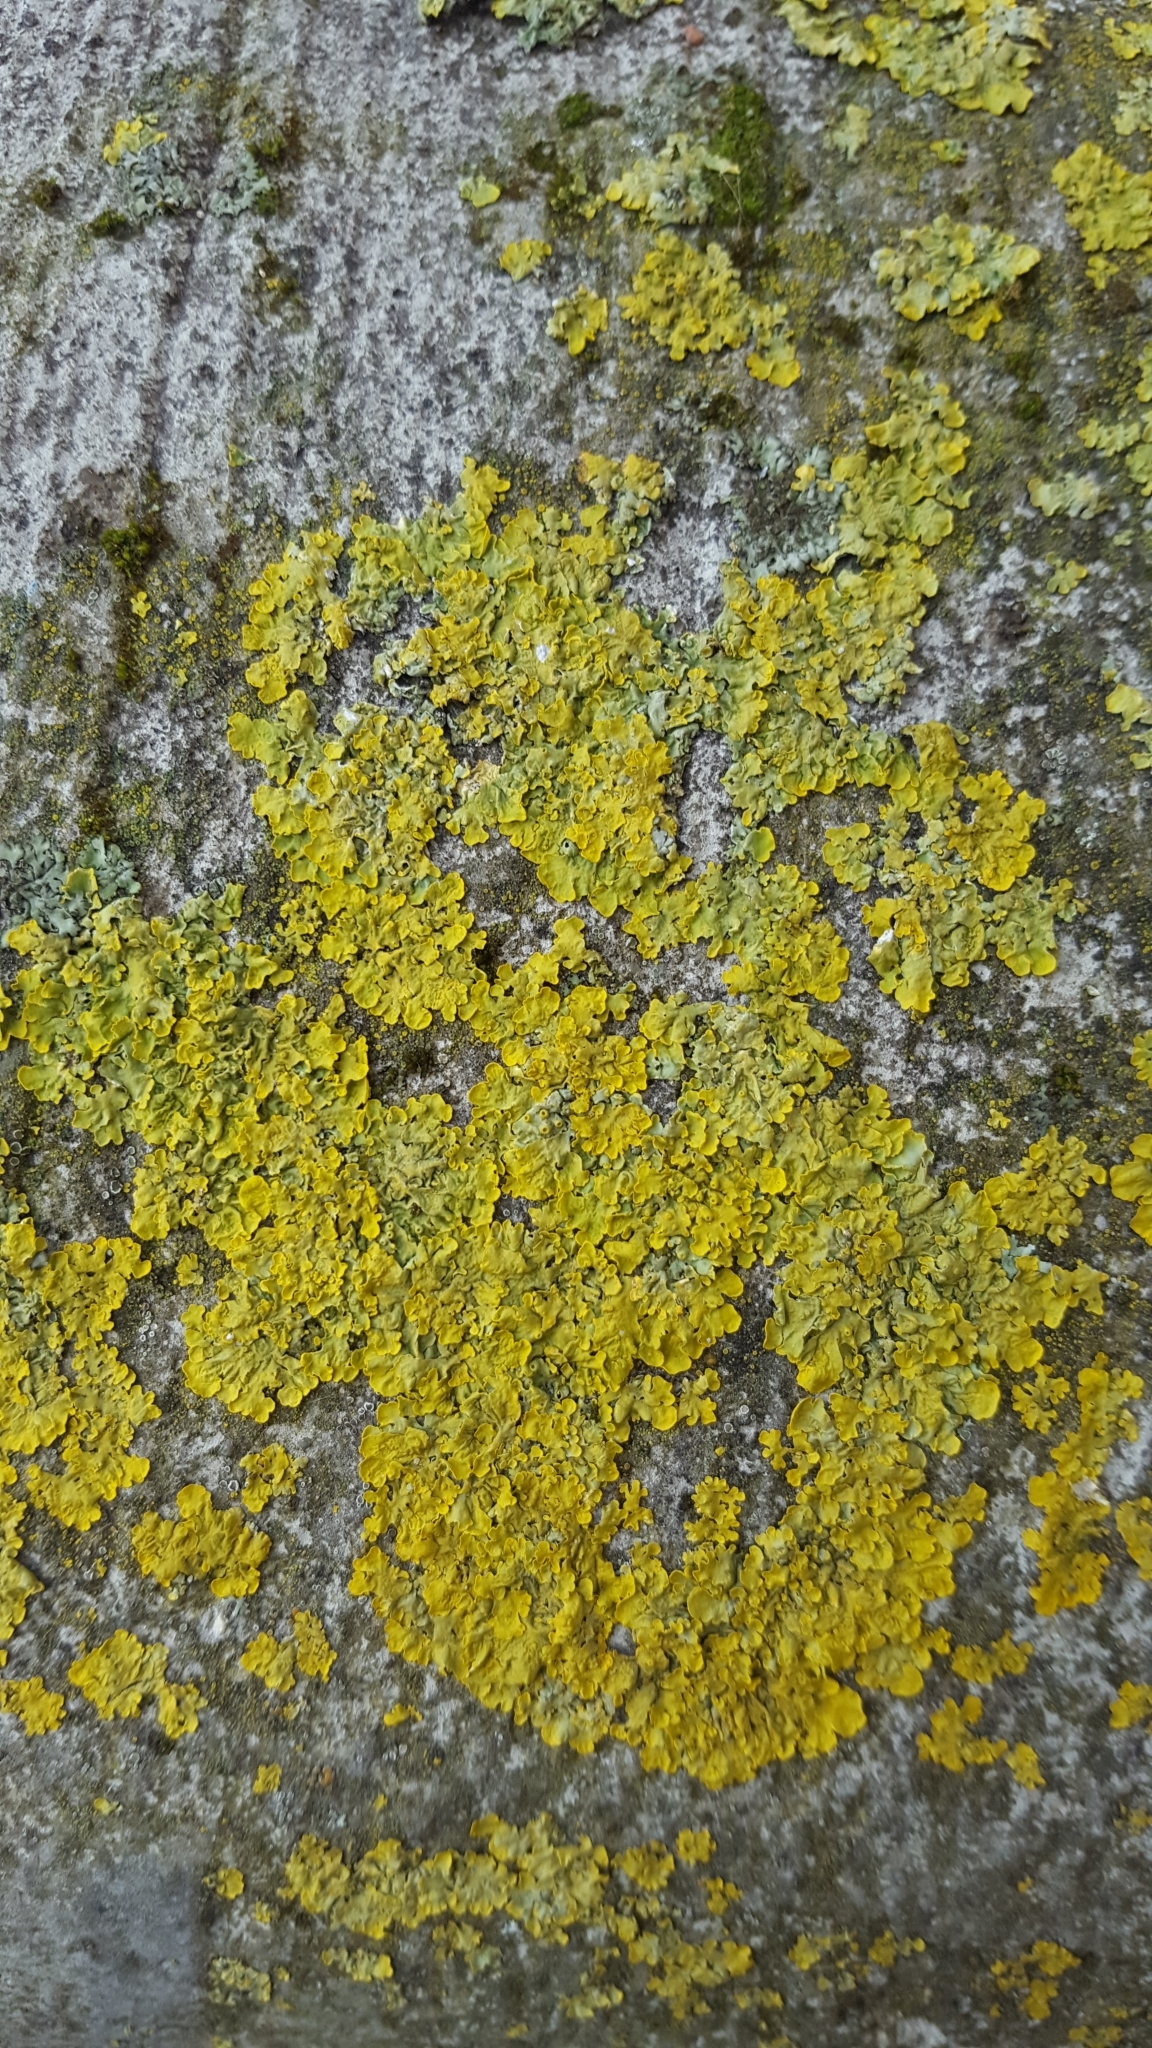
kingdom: Fungi
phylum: Ascomycota
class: Lecanoromycetes
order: Teloschistales
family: Teloschistaceae
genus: Xanthoria
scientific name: Xanthoria parietina
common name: Common orange lichen
